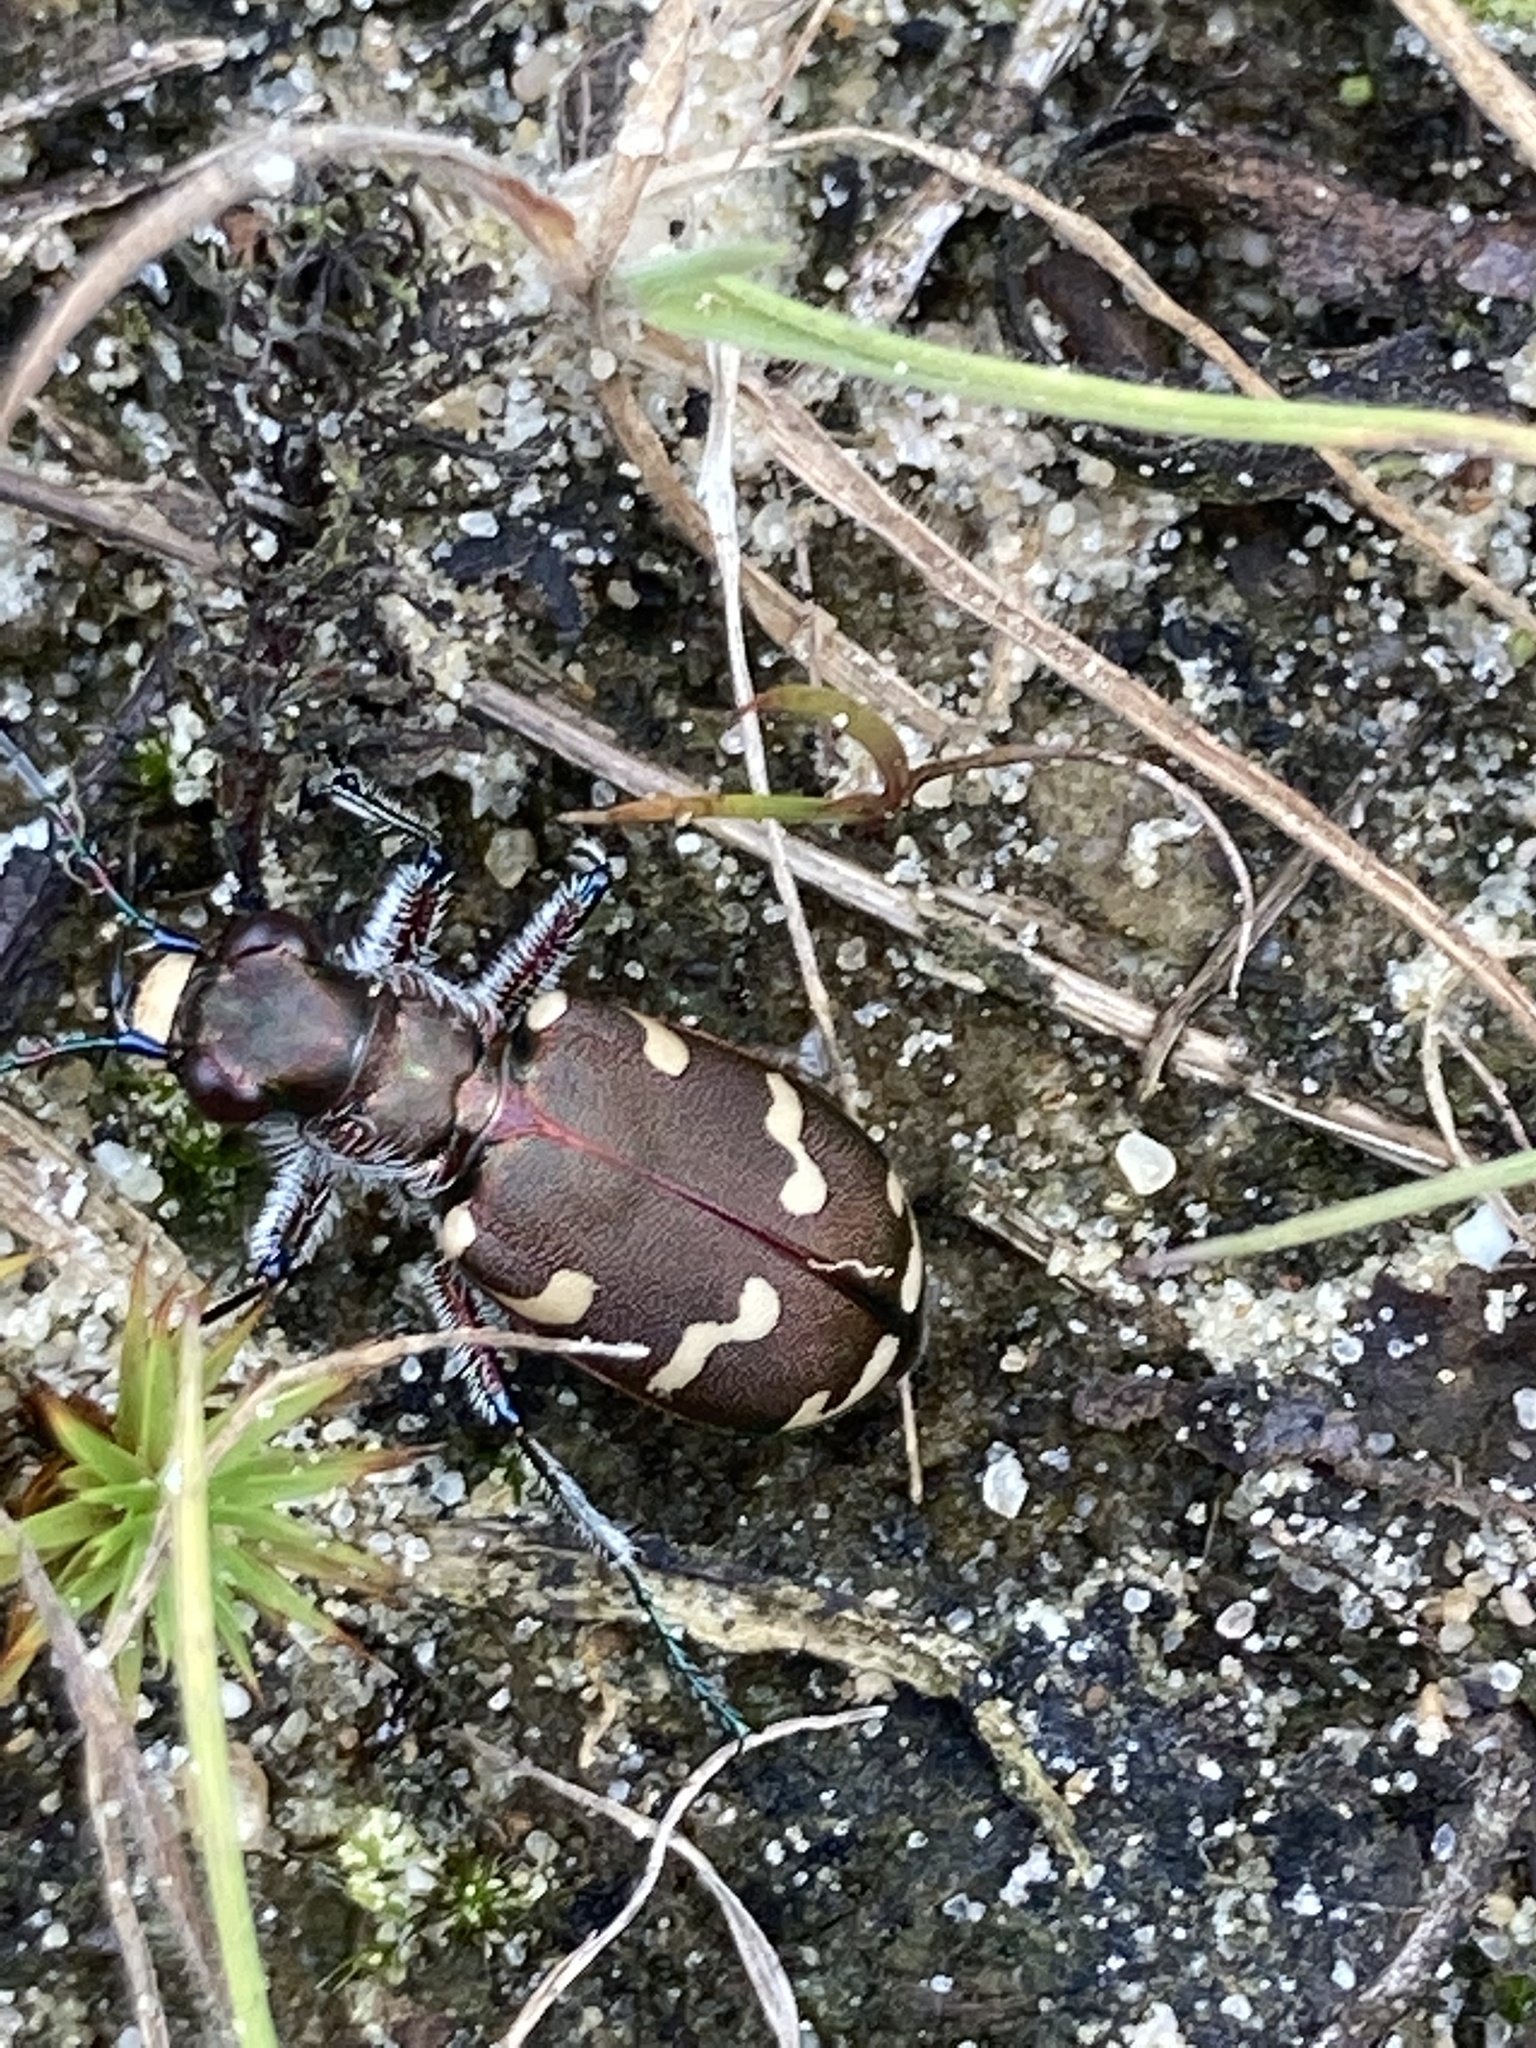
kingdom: Animalia
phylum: Arthropoda
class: Insecta
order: Coleoptera
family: Carabidae
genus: Cicindela
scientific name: Cicindela hybrida
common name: Northern dune tiger beetle
